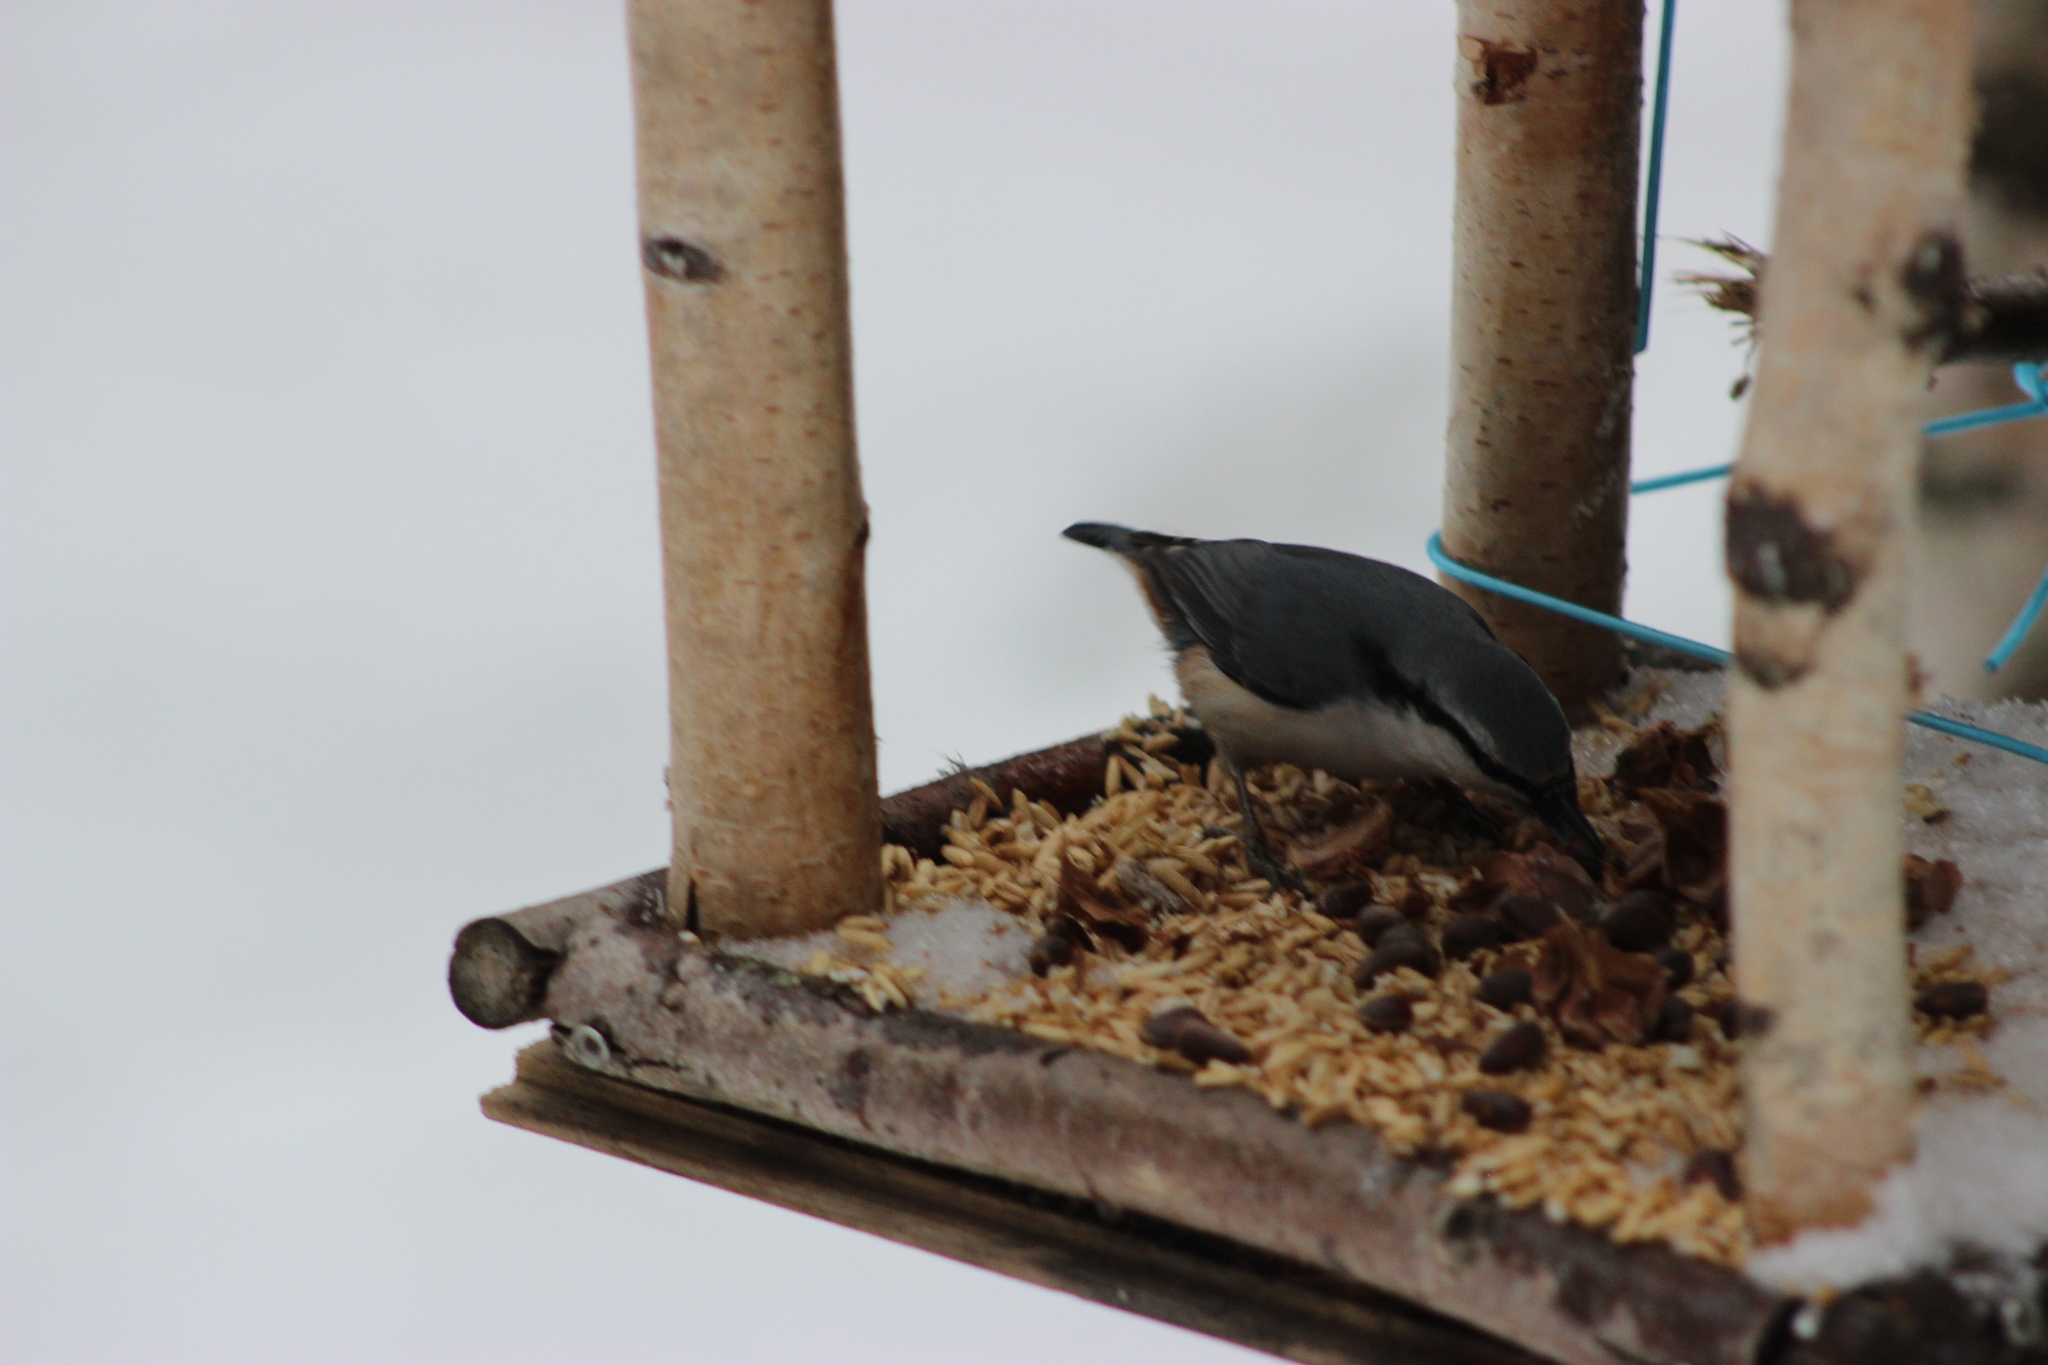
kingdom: Animalia
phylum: Chordata
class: Aves
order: Passeriformes
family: Sittidae
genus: Sitta
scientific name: Sitta europaea
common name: Eurasian nuthatch
